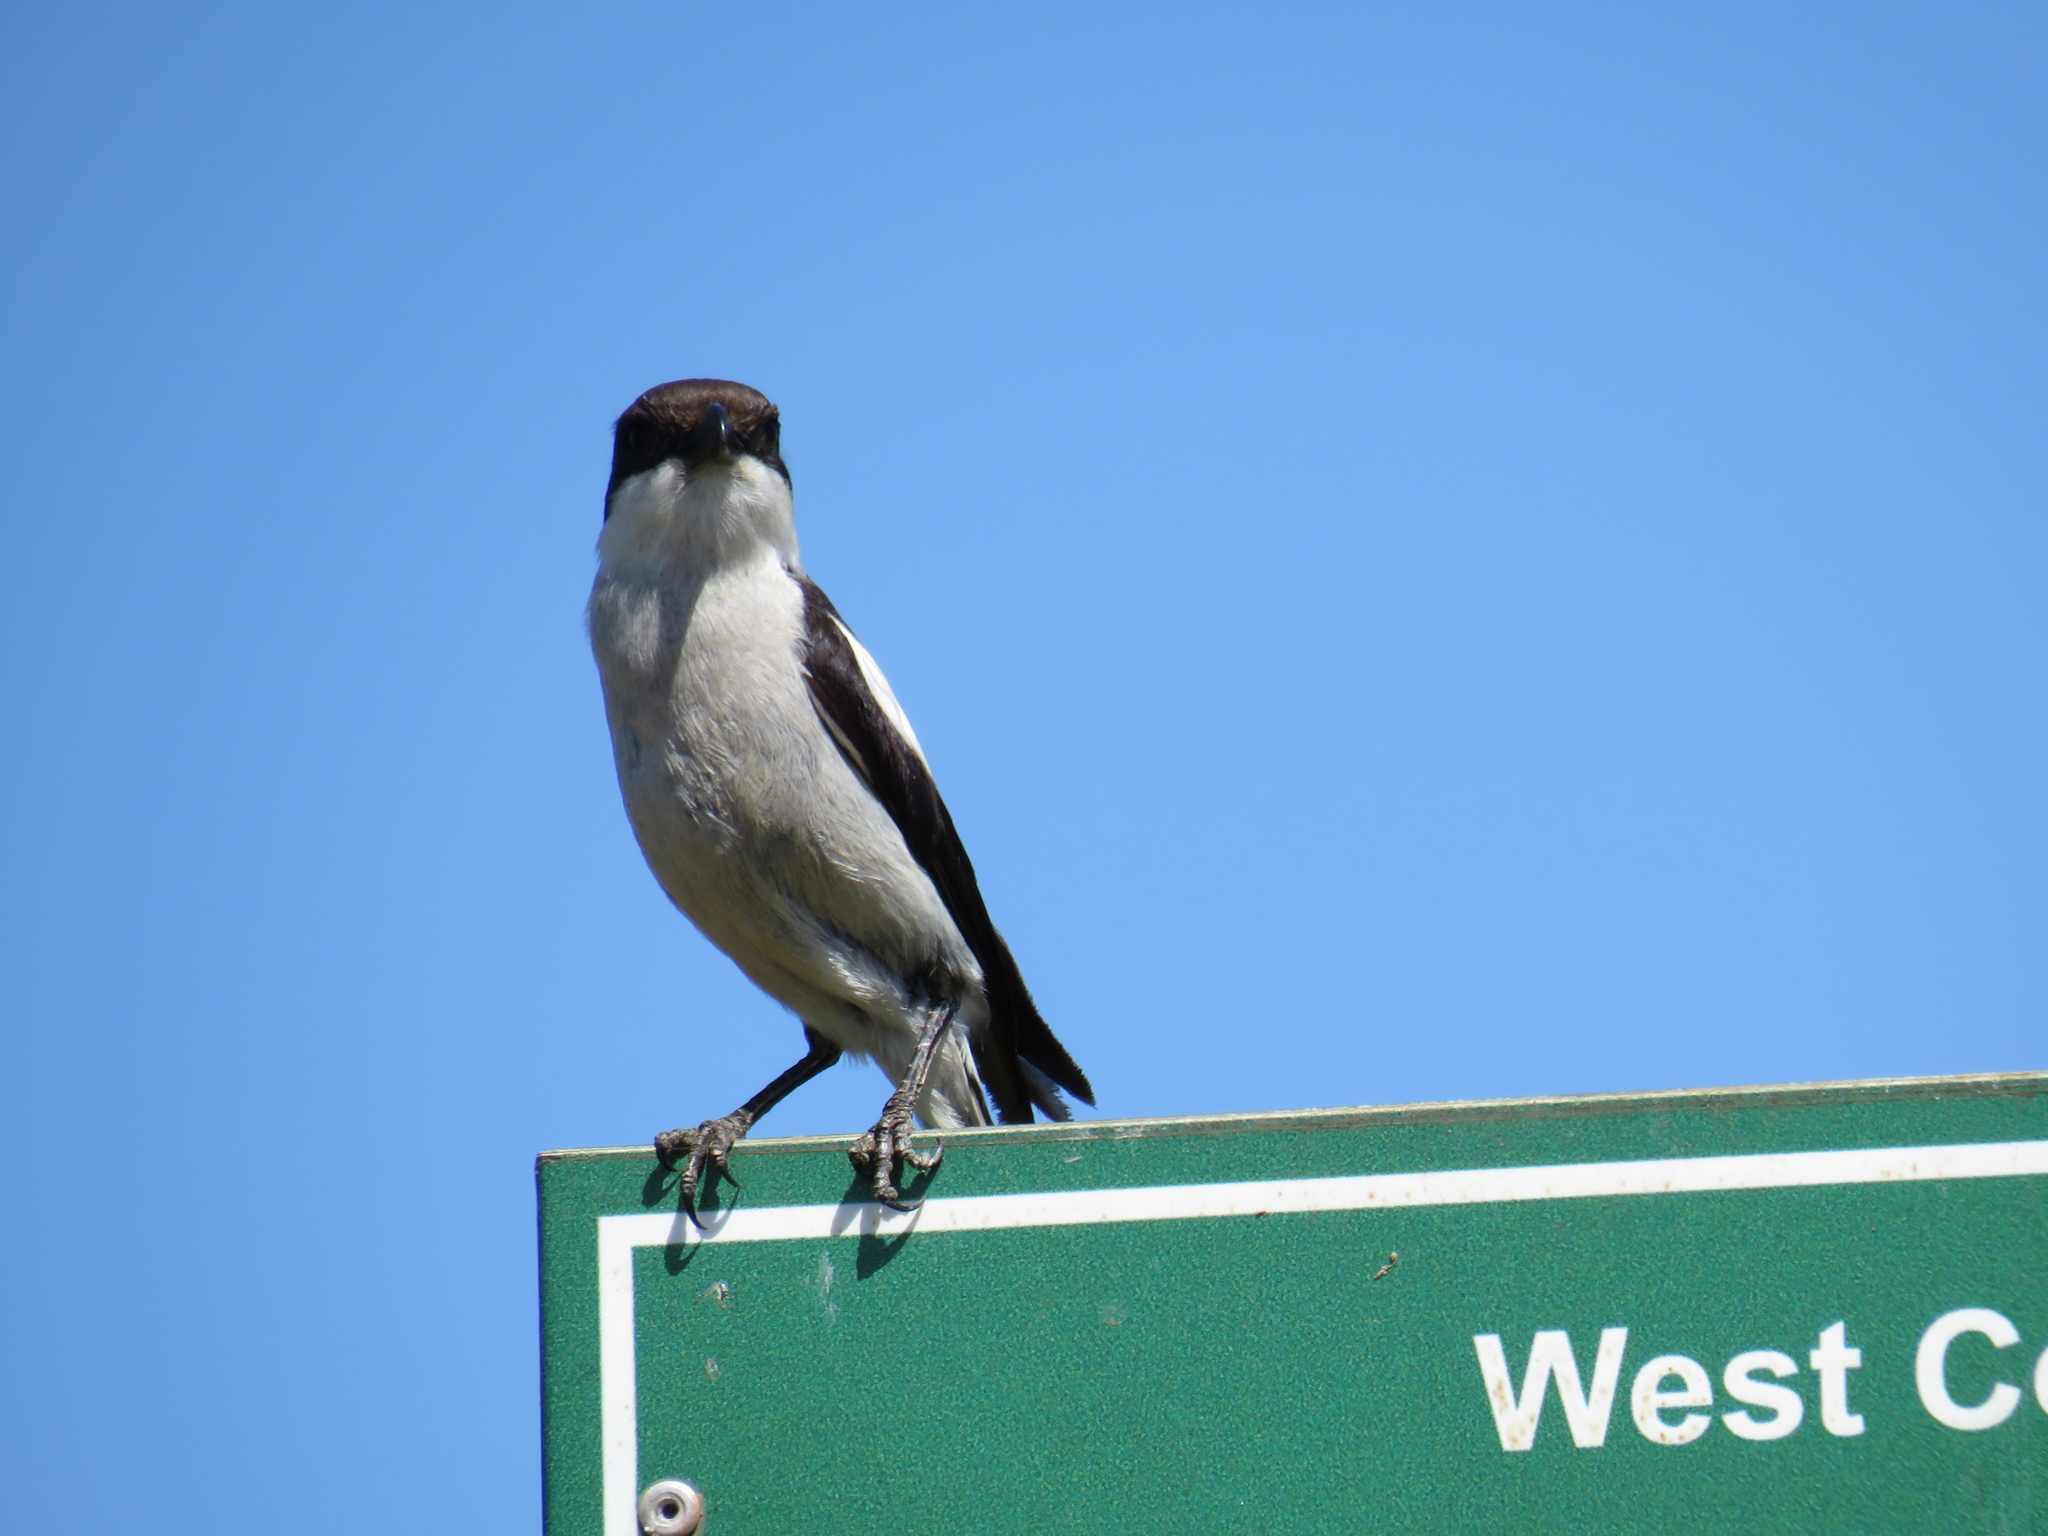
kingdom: Animalia
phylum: Chordata
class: Aves
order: Passeriformes
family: Laniidae
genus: Lanius
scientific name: Lanius collaris
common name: Southern fiscal
